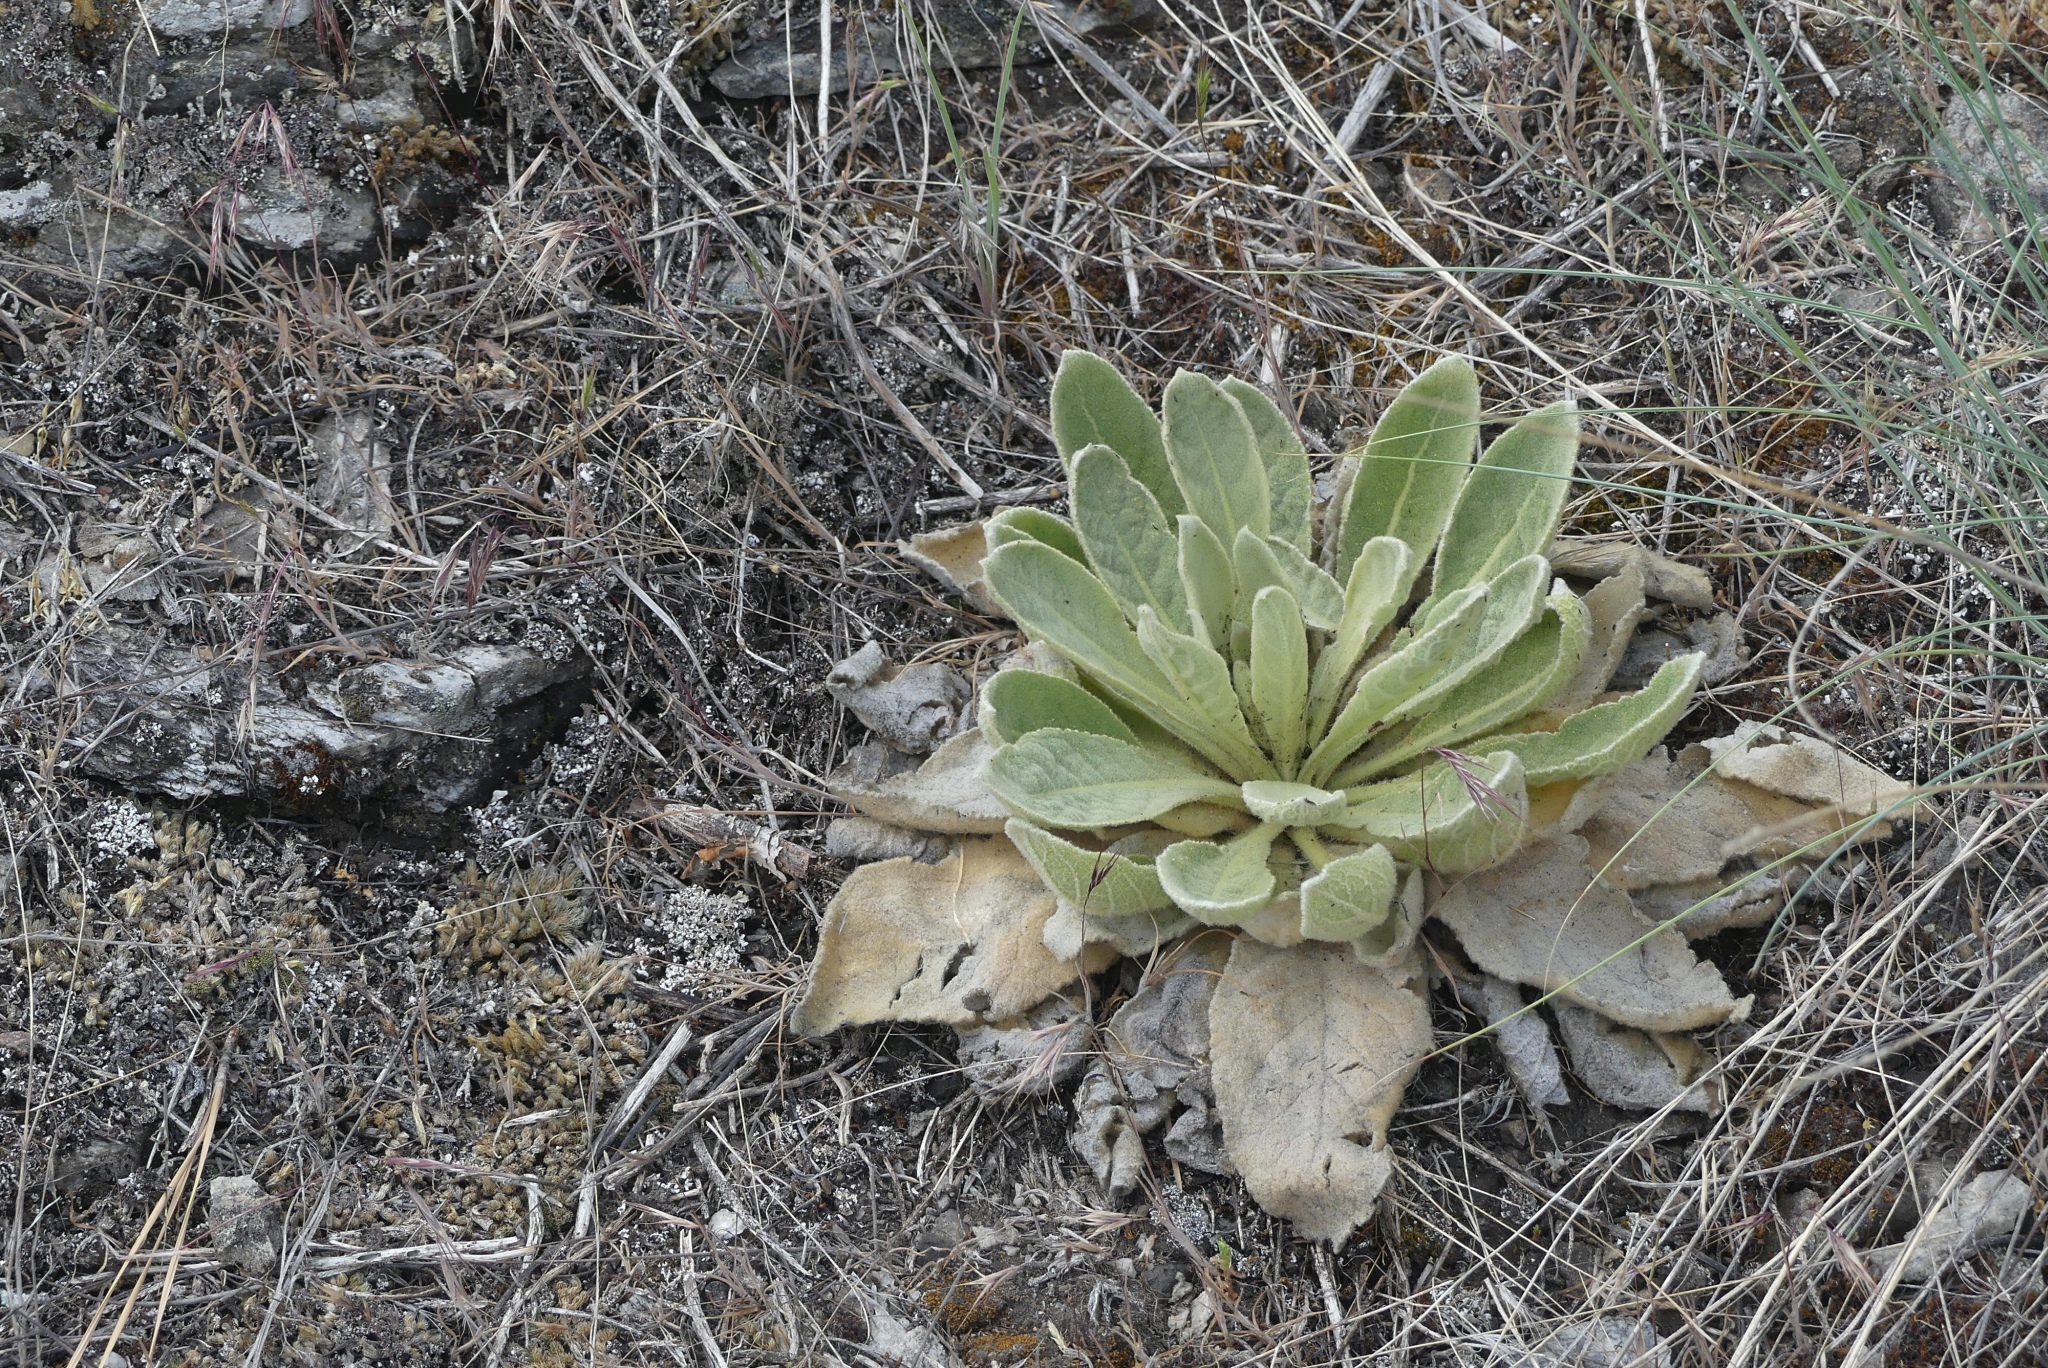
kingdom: Plantae
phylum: Tracheophyta
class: Magnoliopsida
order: Lamiales
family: Scrophulariaceae
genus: Verbascum
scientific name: Verbascum thapsus
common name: Common mullein
